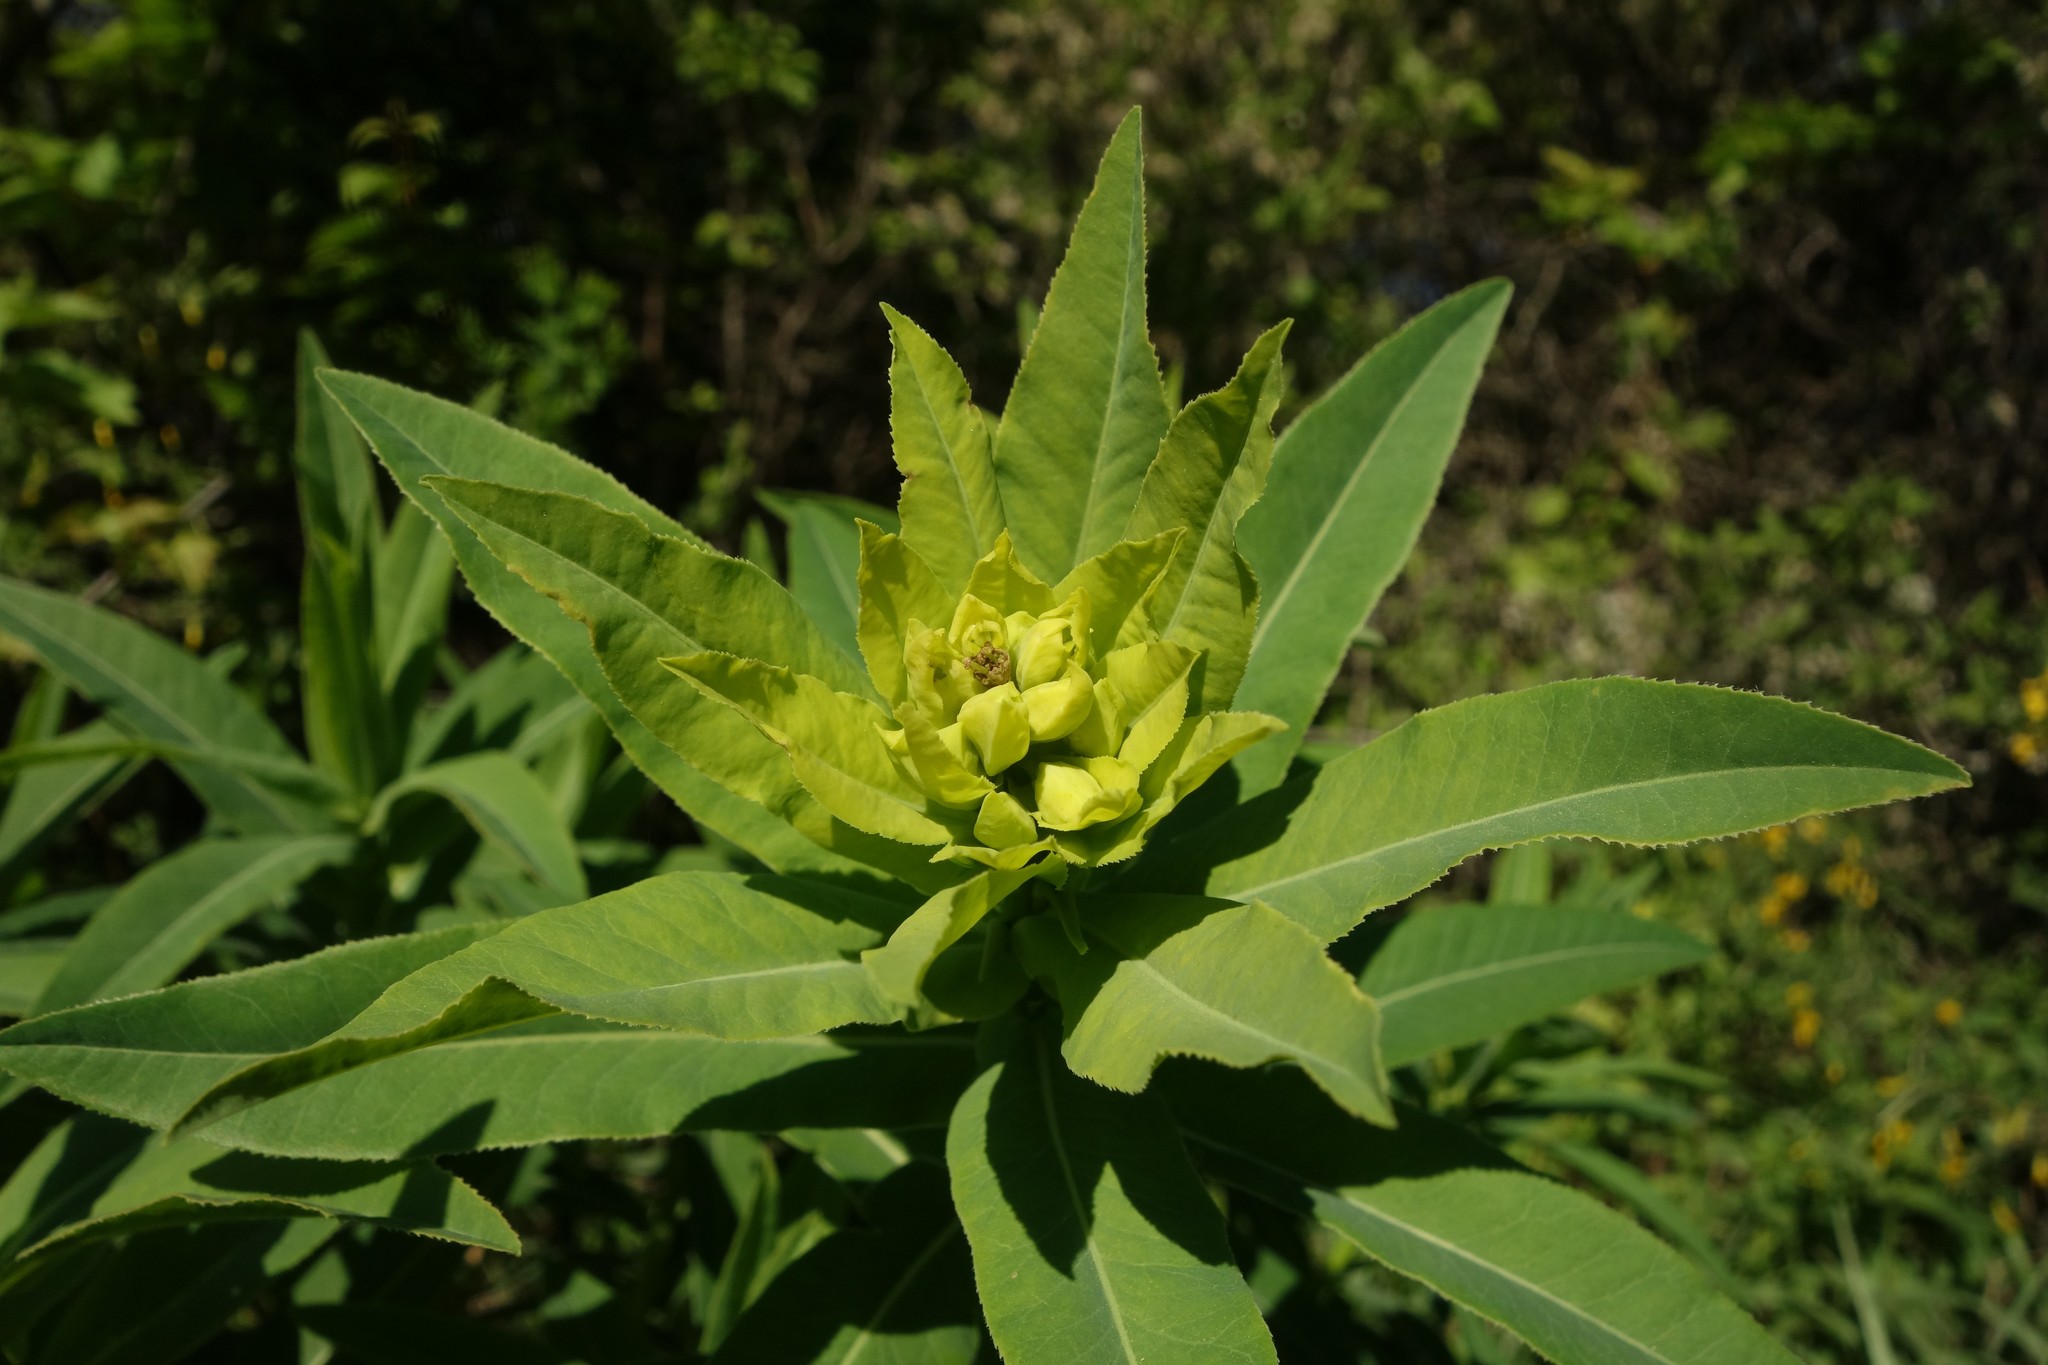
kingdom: Plantae
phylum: Tracheophyta
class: Magnoliopsida
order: Malpighiales
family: Euphorbiaceae
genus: Euphorbia
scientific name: Euphorbia semivillosa
